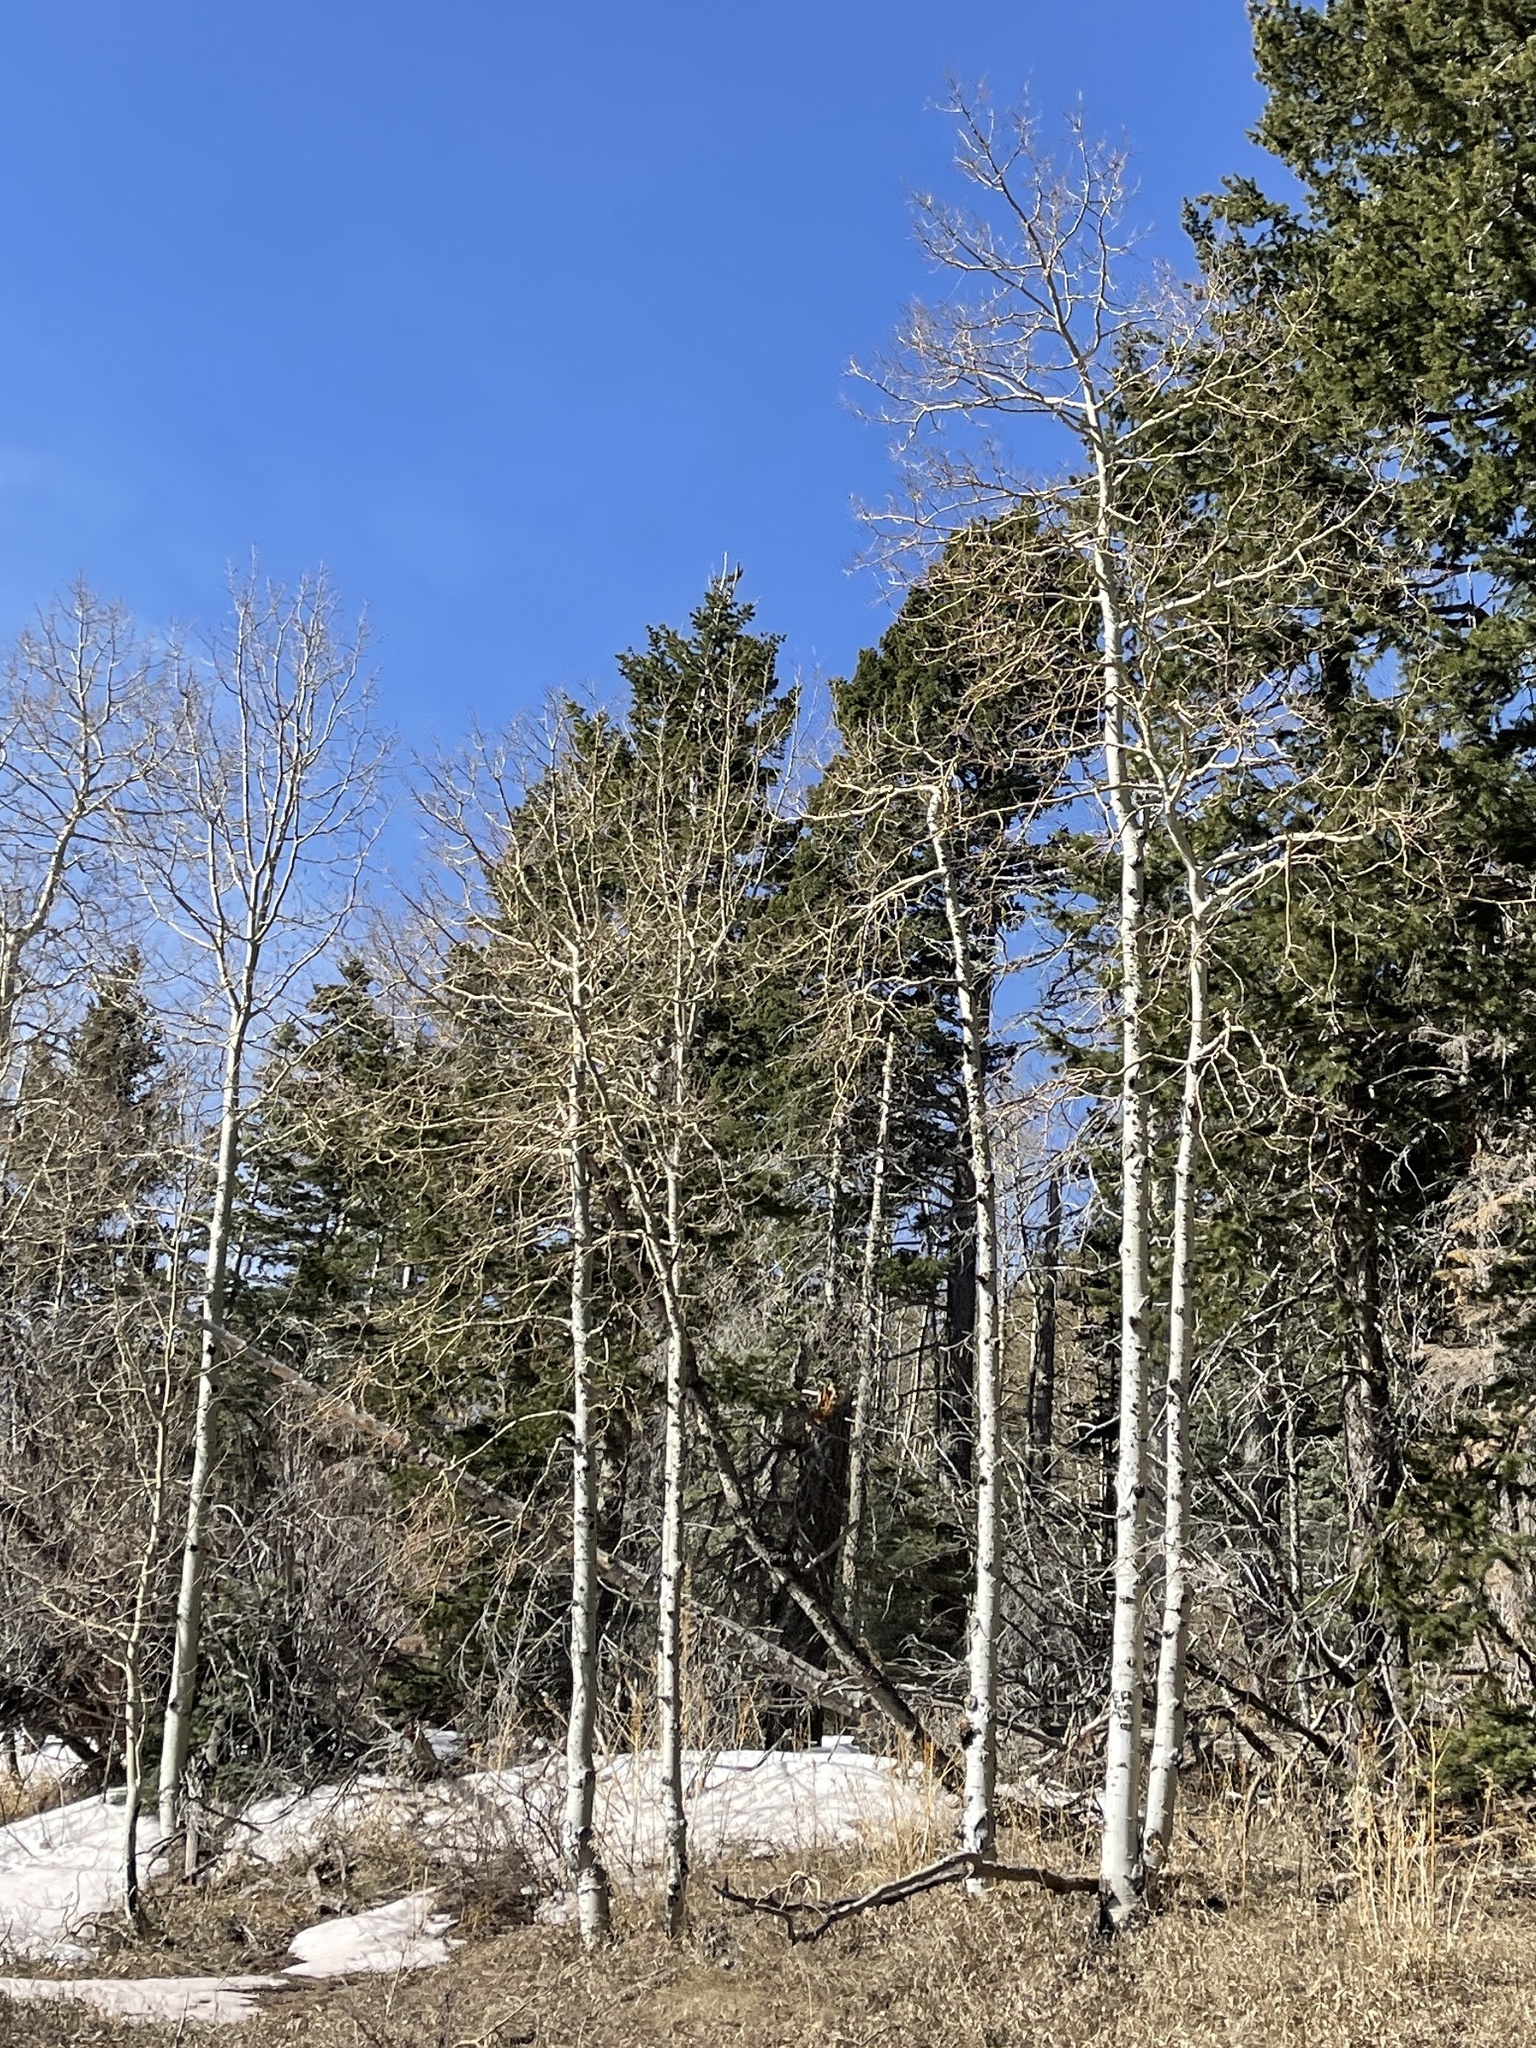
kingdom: Plantae
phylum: Tracheophyta
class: Magnoliopsida
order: Malpighiales
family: Salicaceae
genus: Populus
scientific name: Populus tremuloides
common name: Quaking aspen
